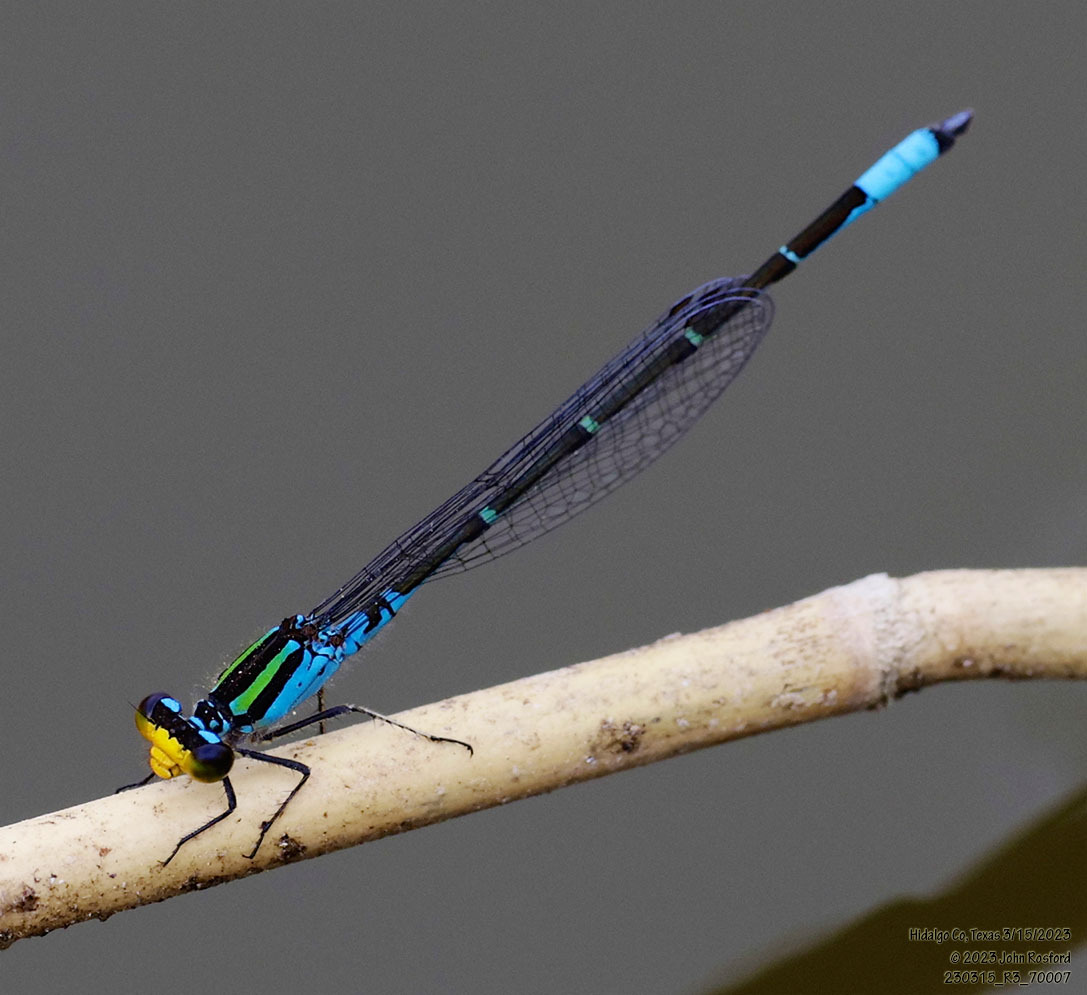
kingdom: Animalia
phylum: Arthropoda
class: Insecta
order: Odonata
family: Coenagrionidae
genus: Neoerythromma
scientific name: Neoerythromma cultellatum
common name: Caribbean yellowface
